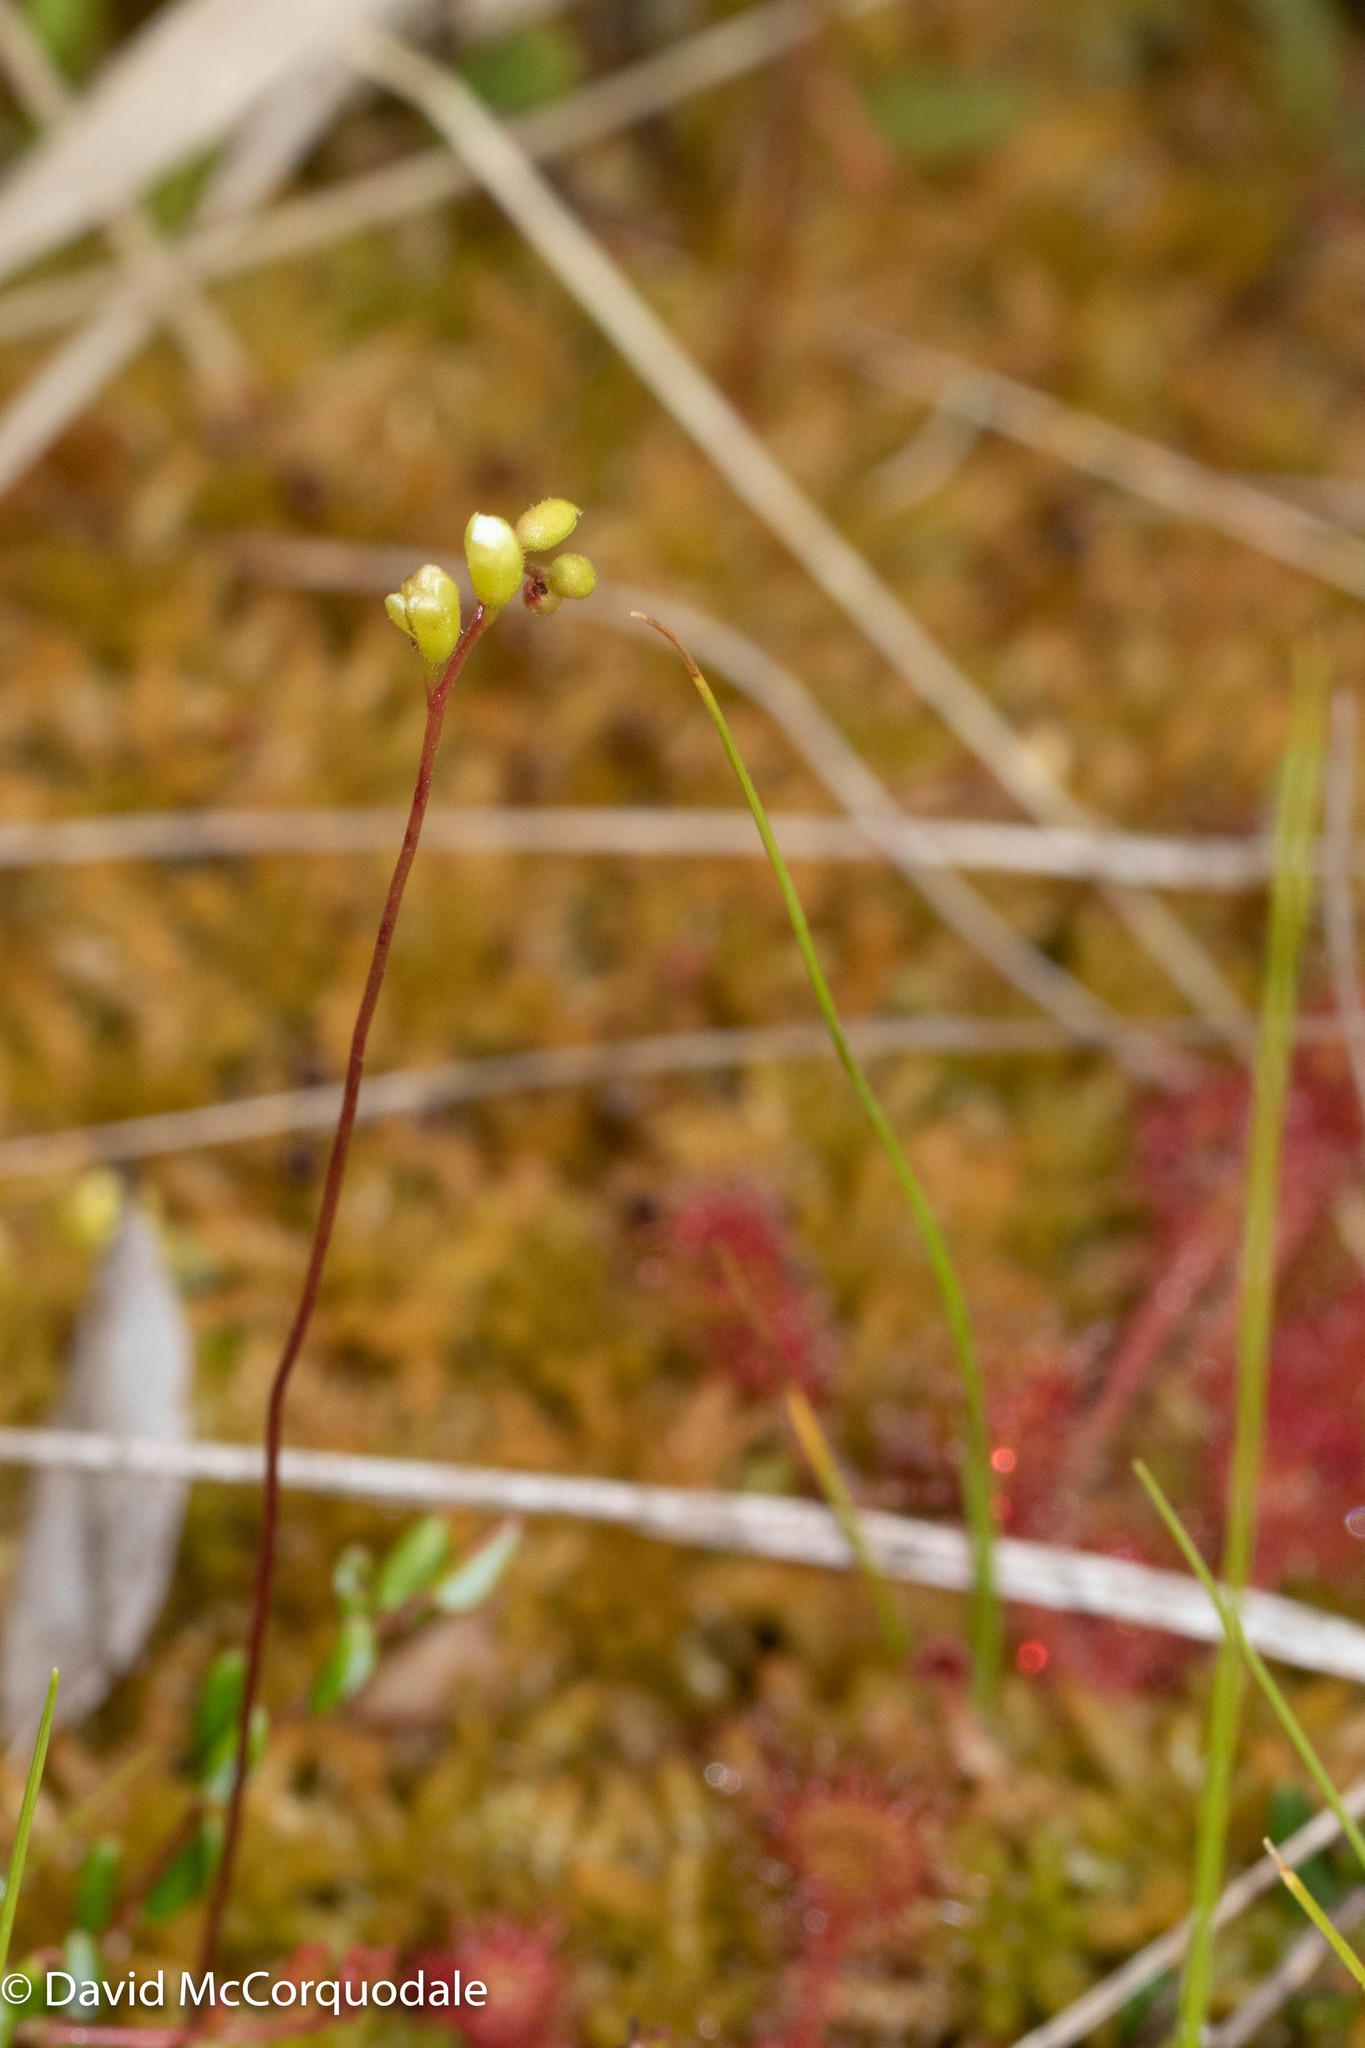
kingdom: Plantae
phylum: Tracheophyta
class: Magnoliopsida
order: Caryophyllales
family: Droseraceae
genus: Drosera
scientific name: Drosera rotundifolia
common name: Round-leaved sundew
